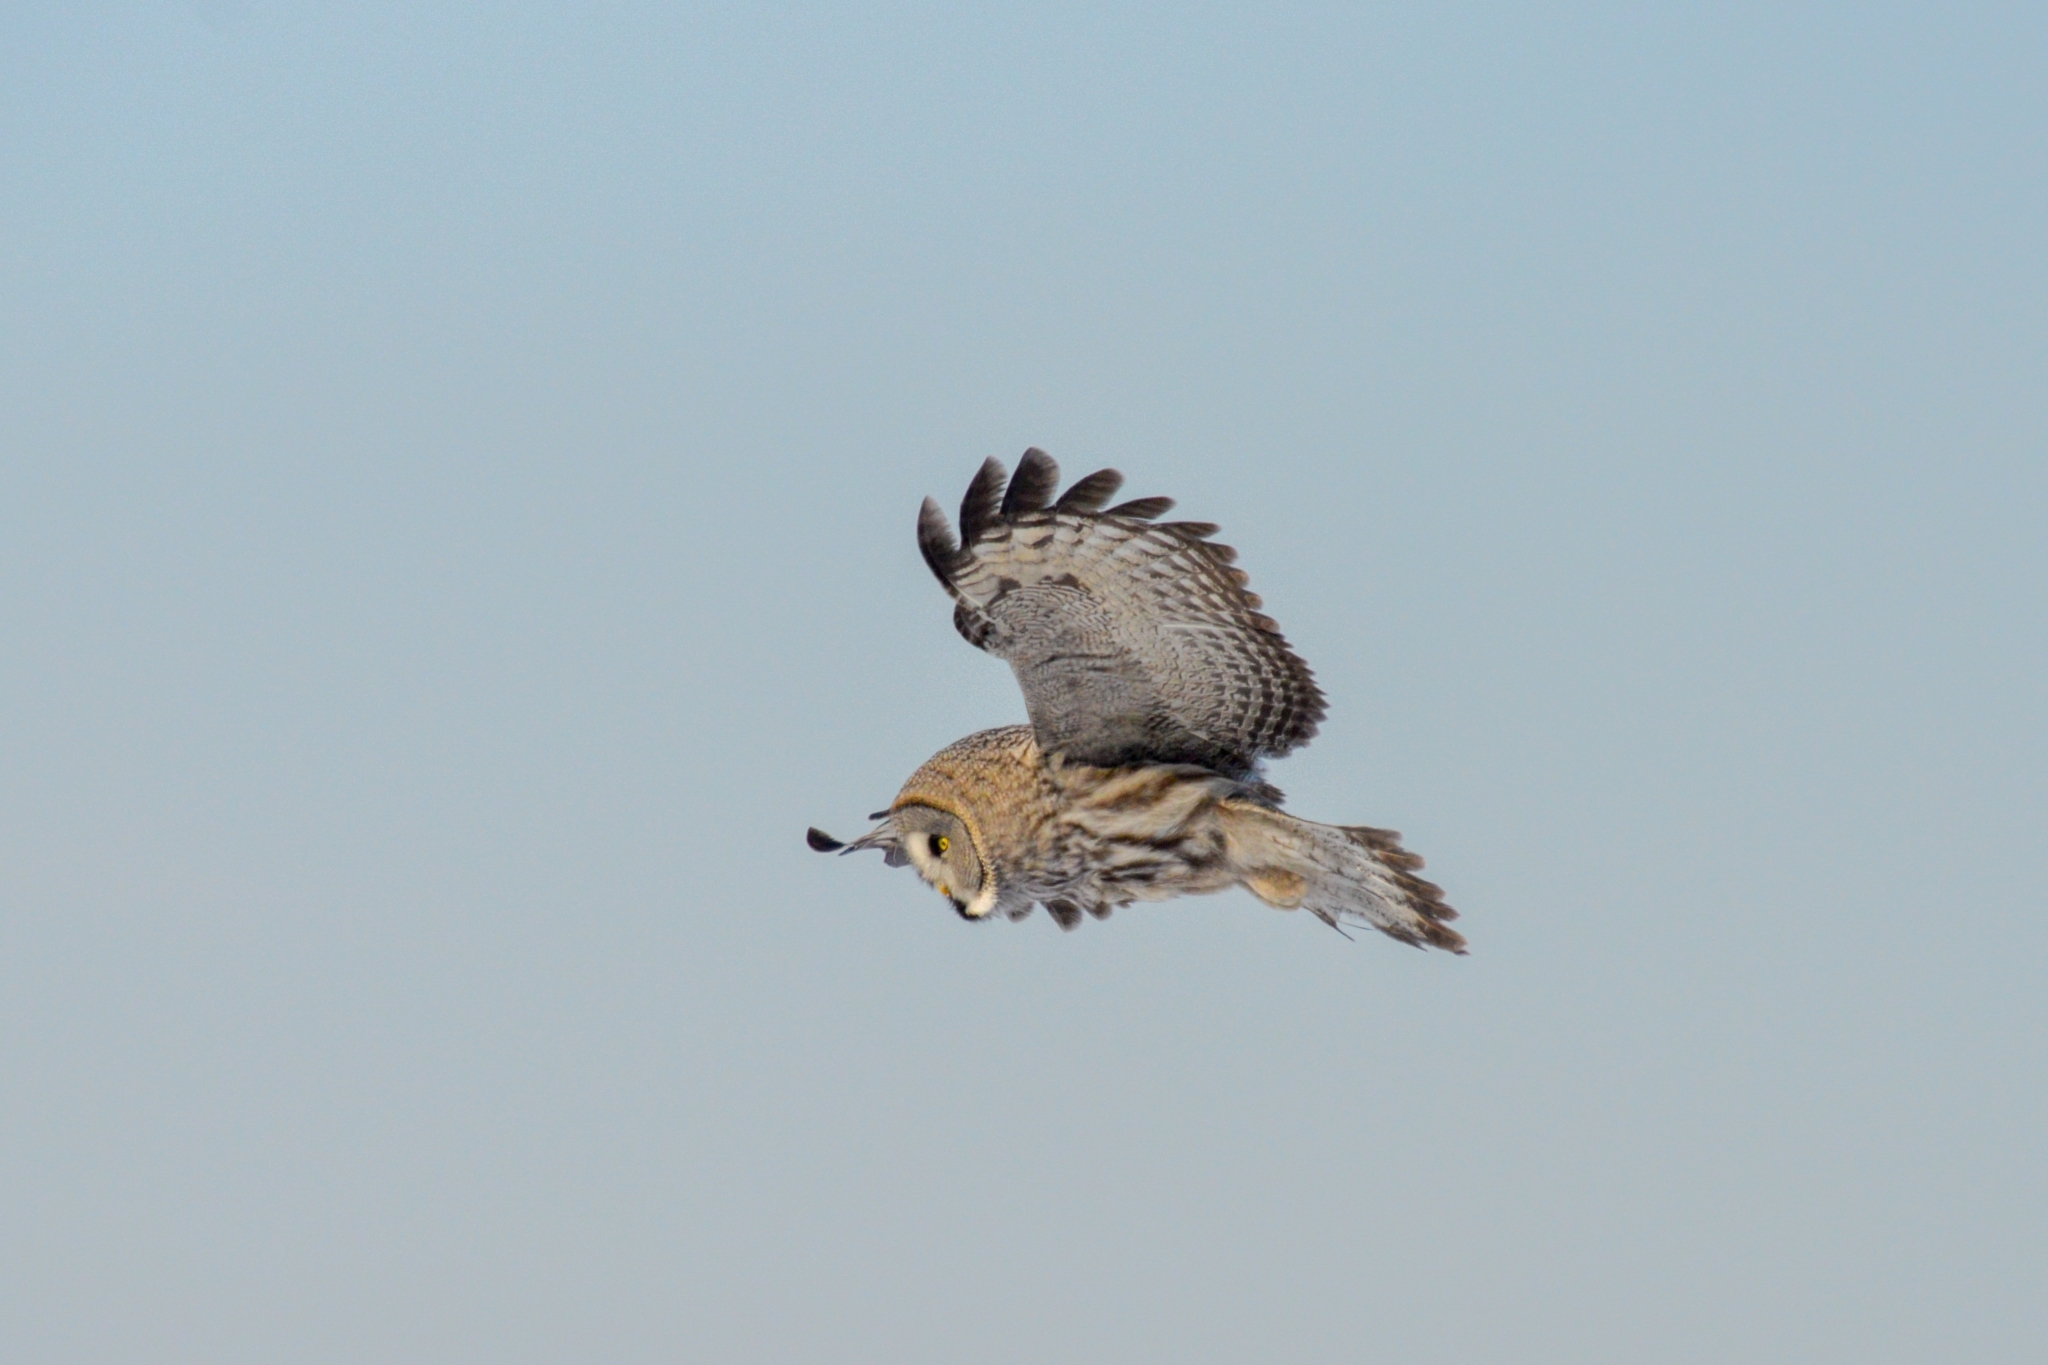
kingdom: Animalia
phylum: Chordata
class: Aves
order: Strigiformes
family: Strigidae
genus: Strix
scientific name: Strix nebulosa
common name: Great grey owl
